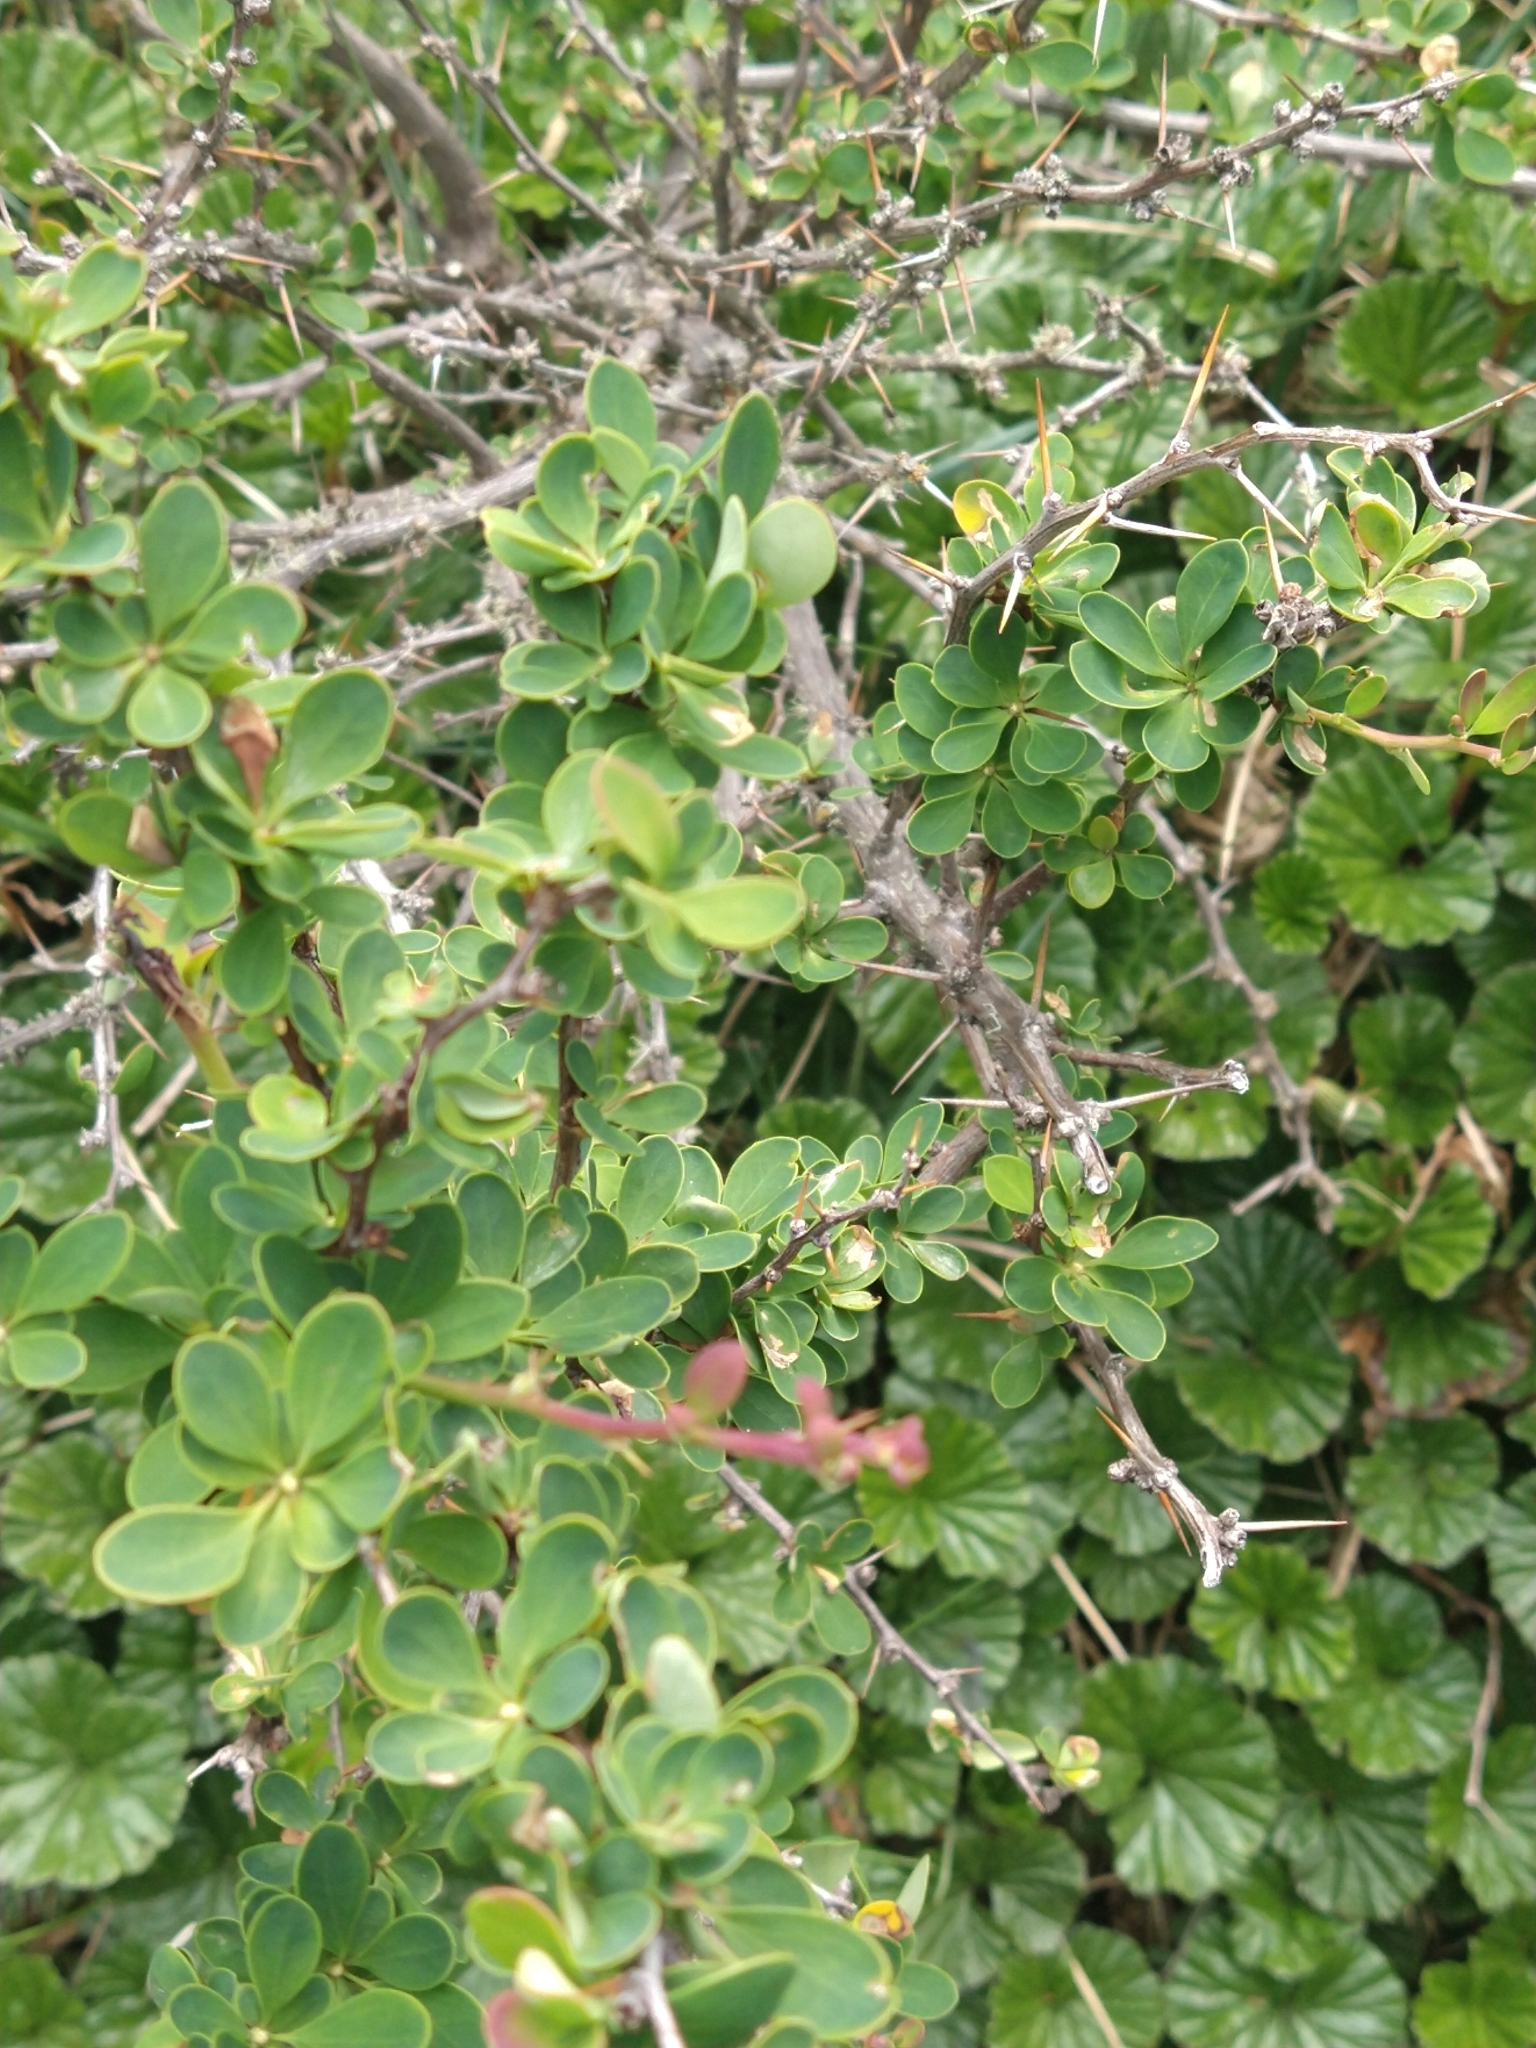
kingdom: Plantae
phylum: Tracheophyta
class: Magnoliopsida
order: Ranunculales
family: Berberidaceae
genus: Berberis
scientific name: Berberis microphylla
